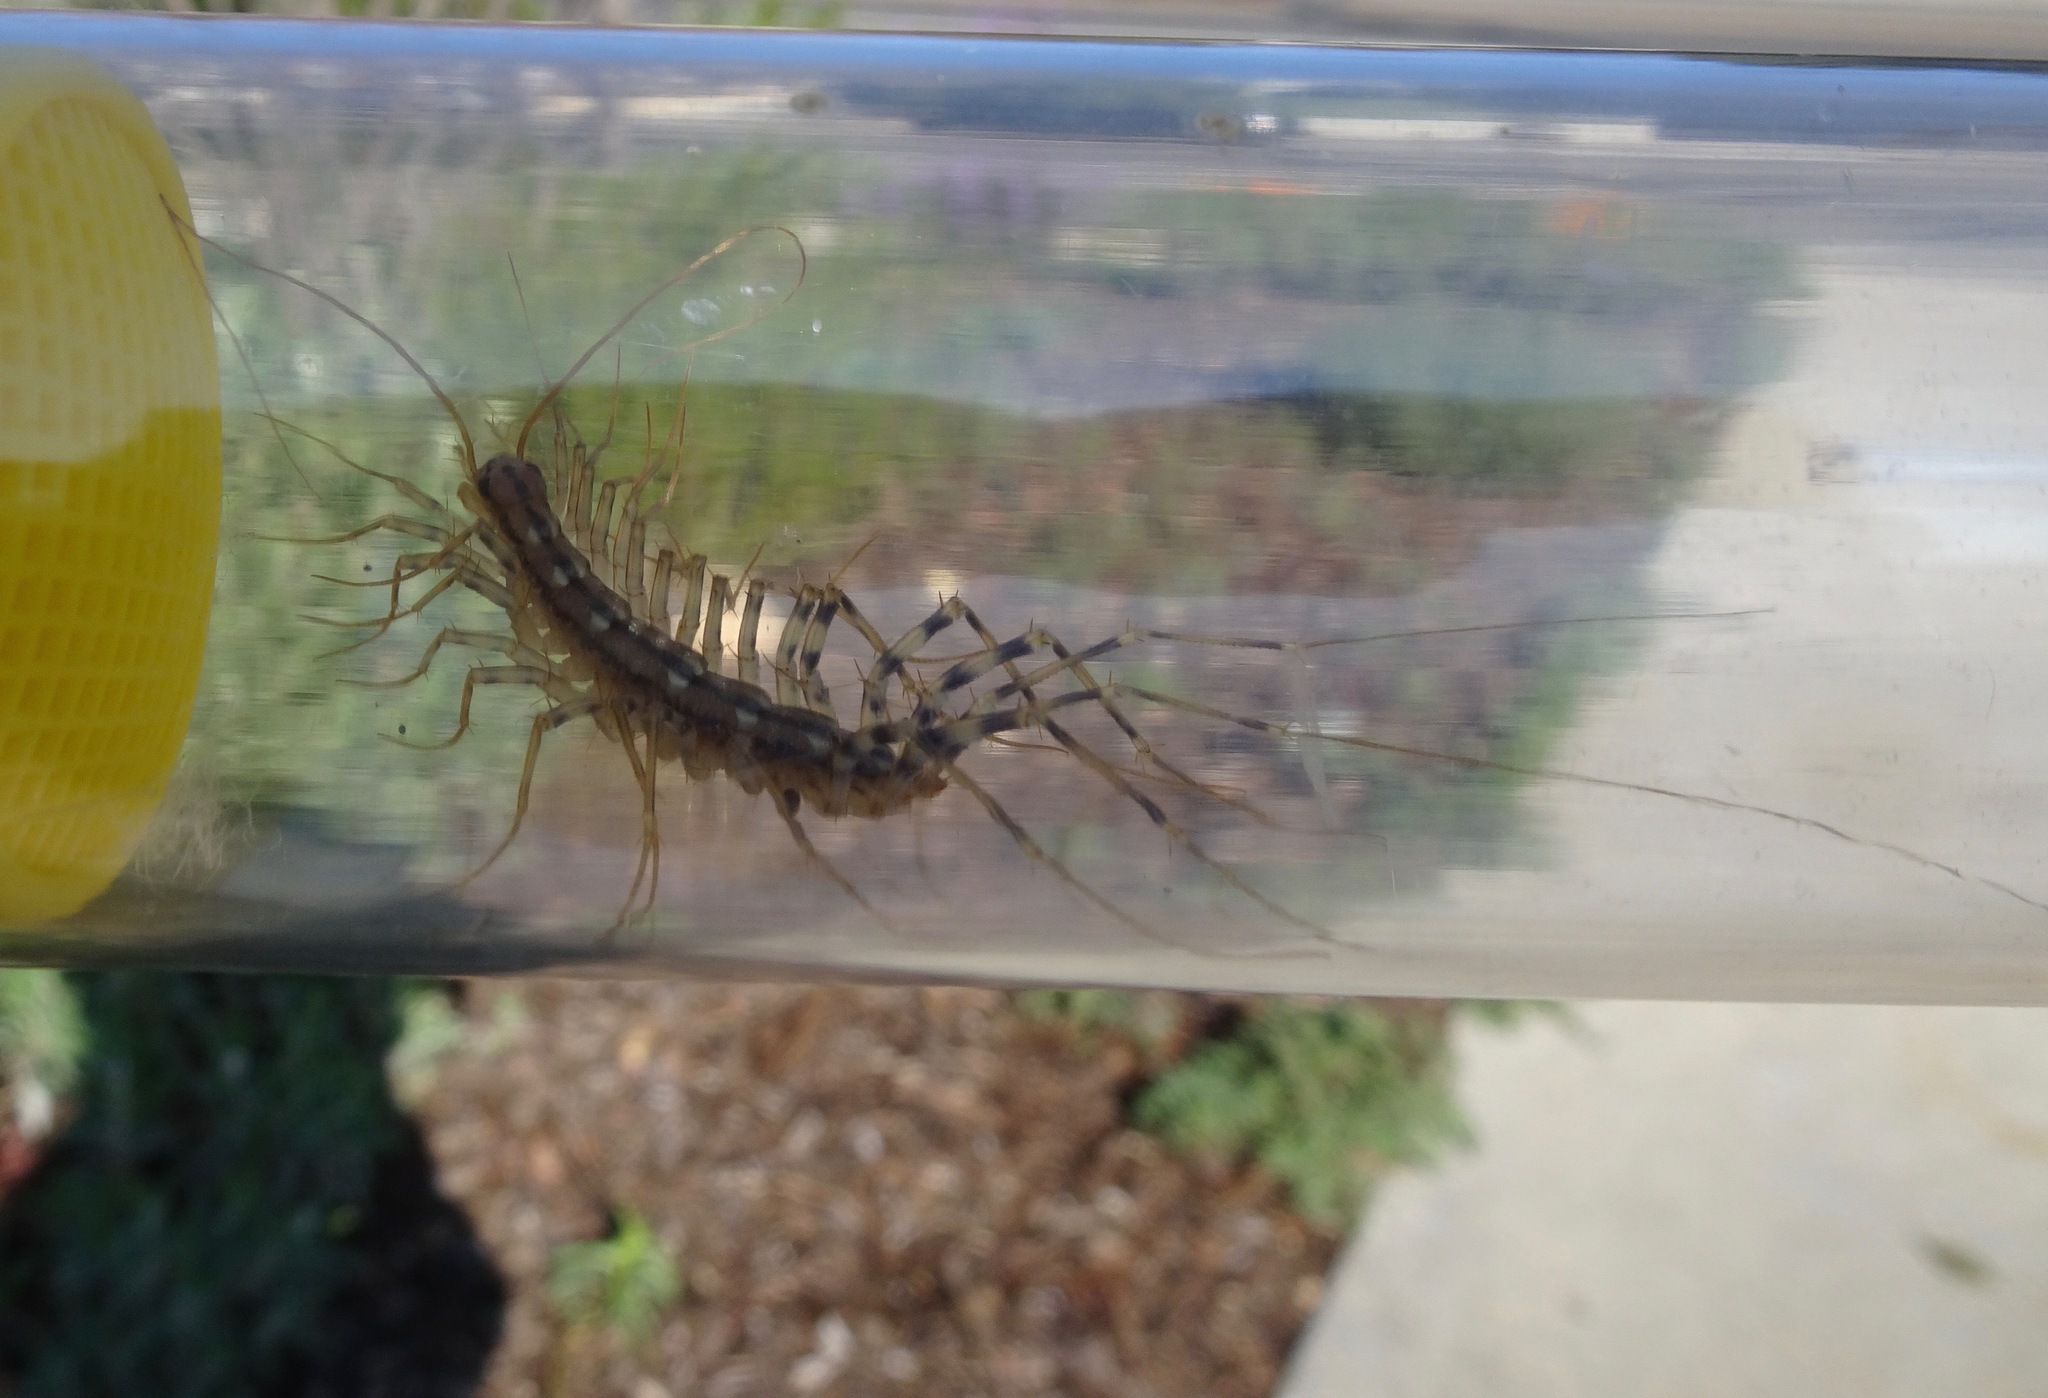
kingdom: Animalia
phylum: Arthropoda
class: Chilopoda
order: Scutigeromorpha
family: Scutigeridae
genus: Scutigera
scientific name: Scutigera coleoptrata
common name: House centipede
